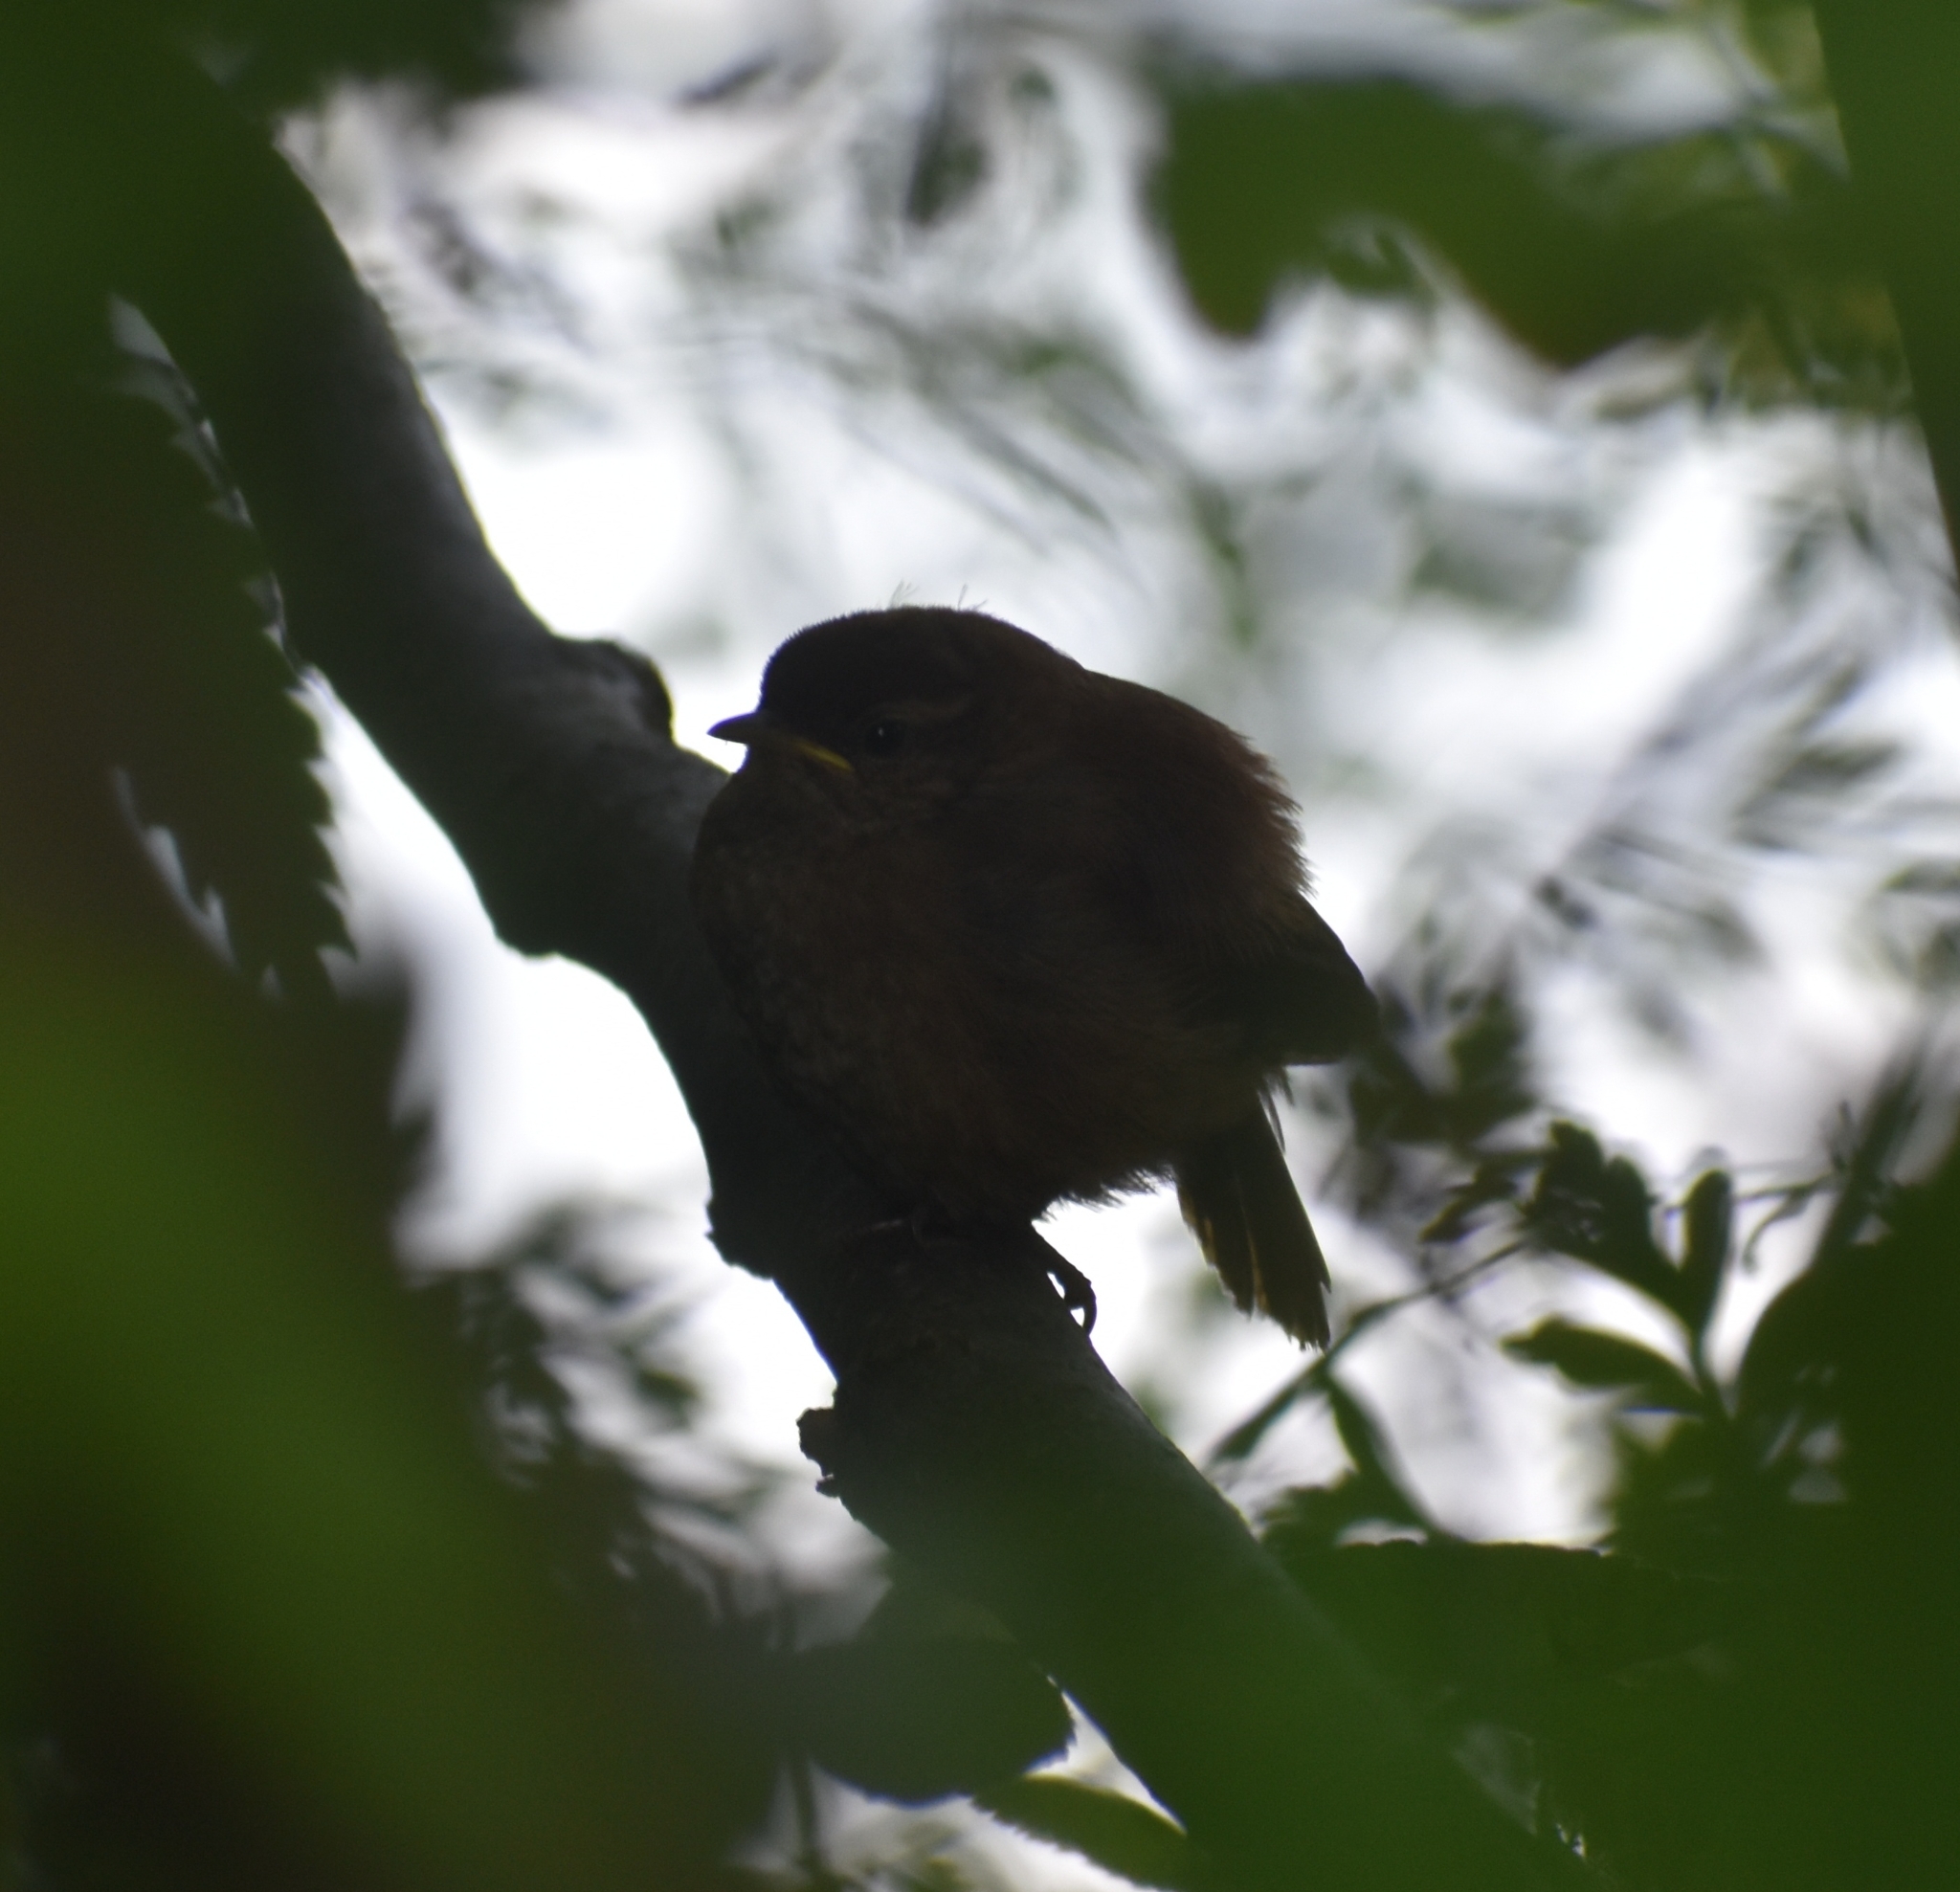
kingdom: Animalia
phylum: Chordata
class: Aves
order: Passeriformes
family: Troglodytidae
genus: Troglodytes
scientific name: Troglodytes troglodytes
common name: Eurasian wren
